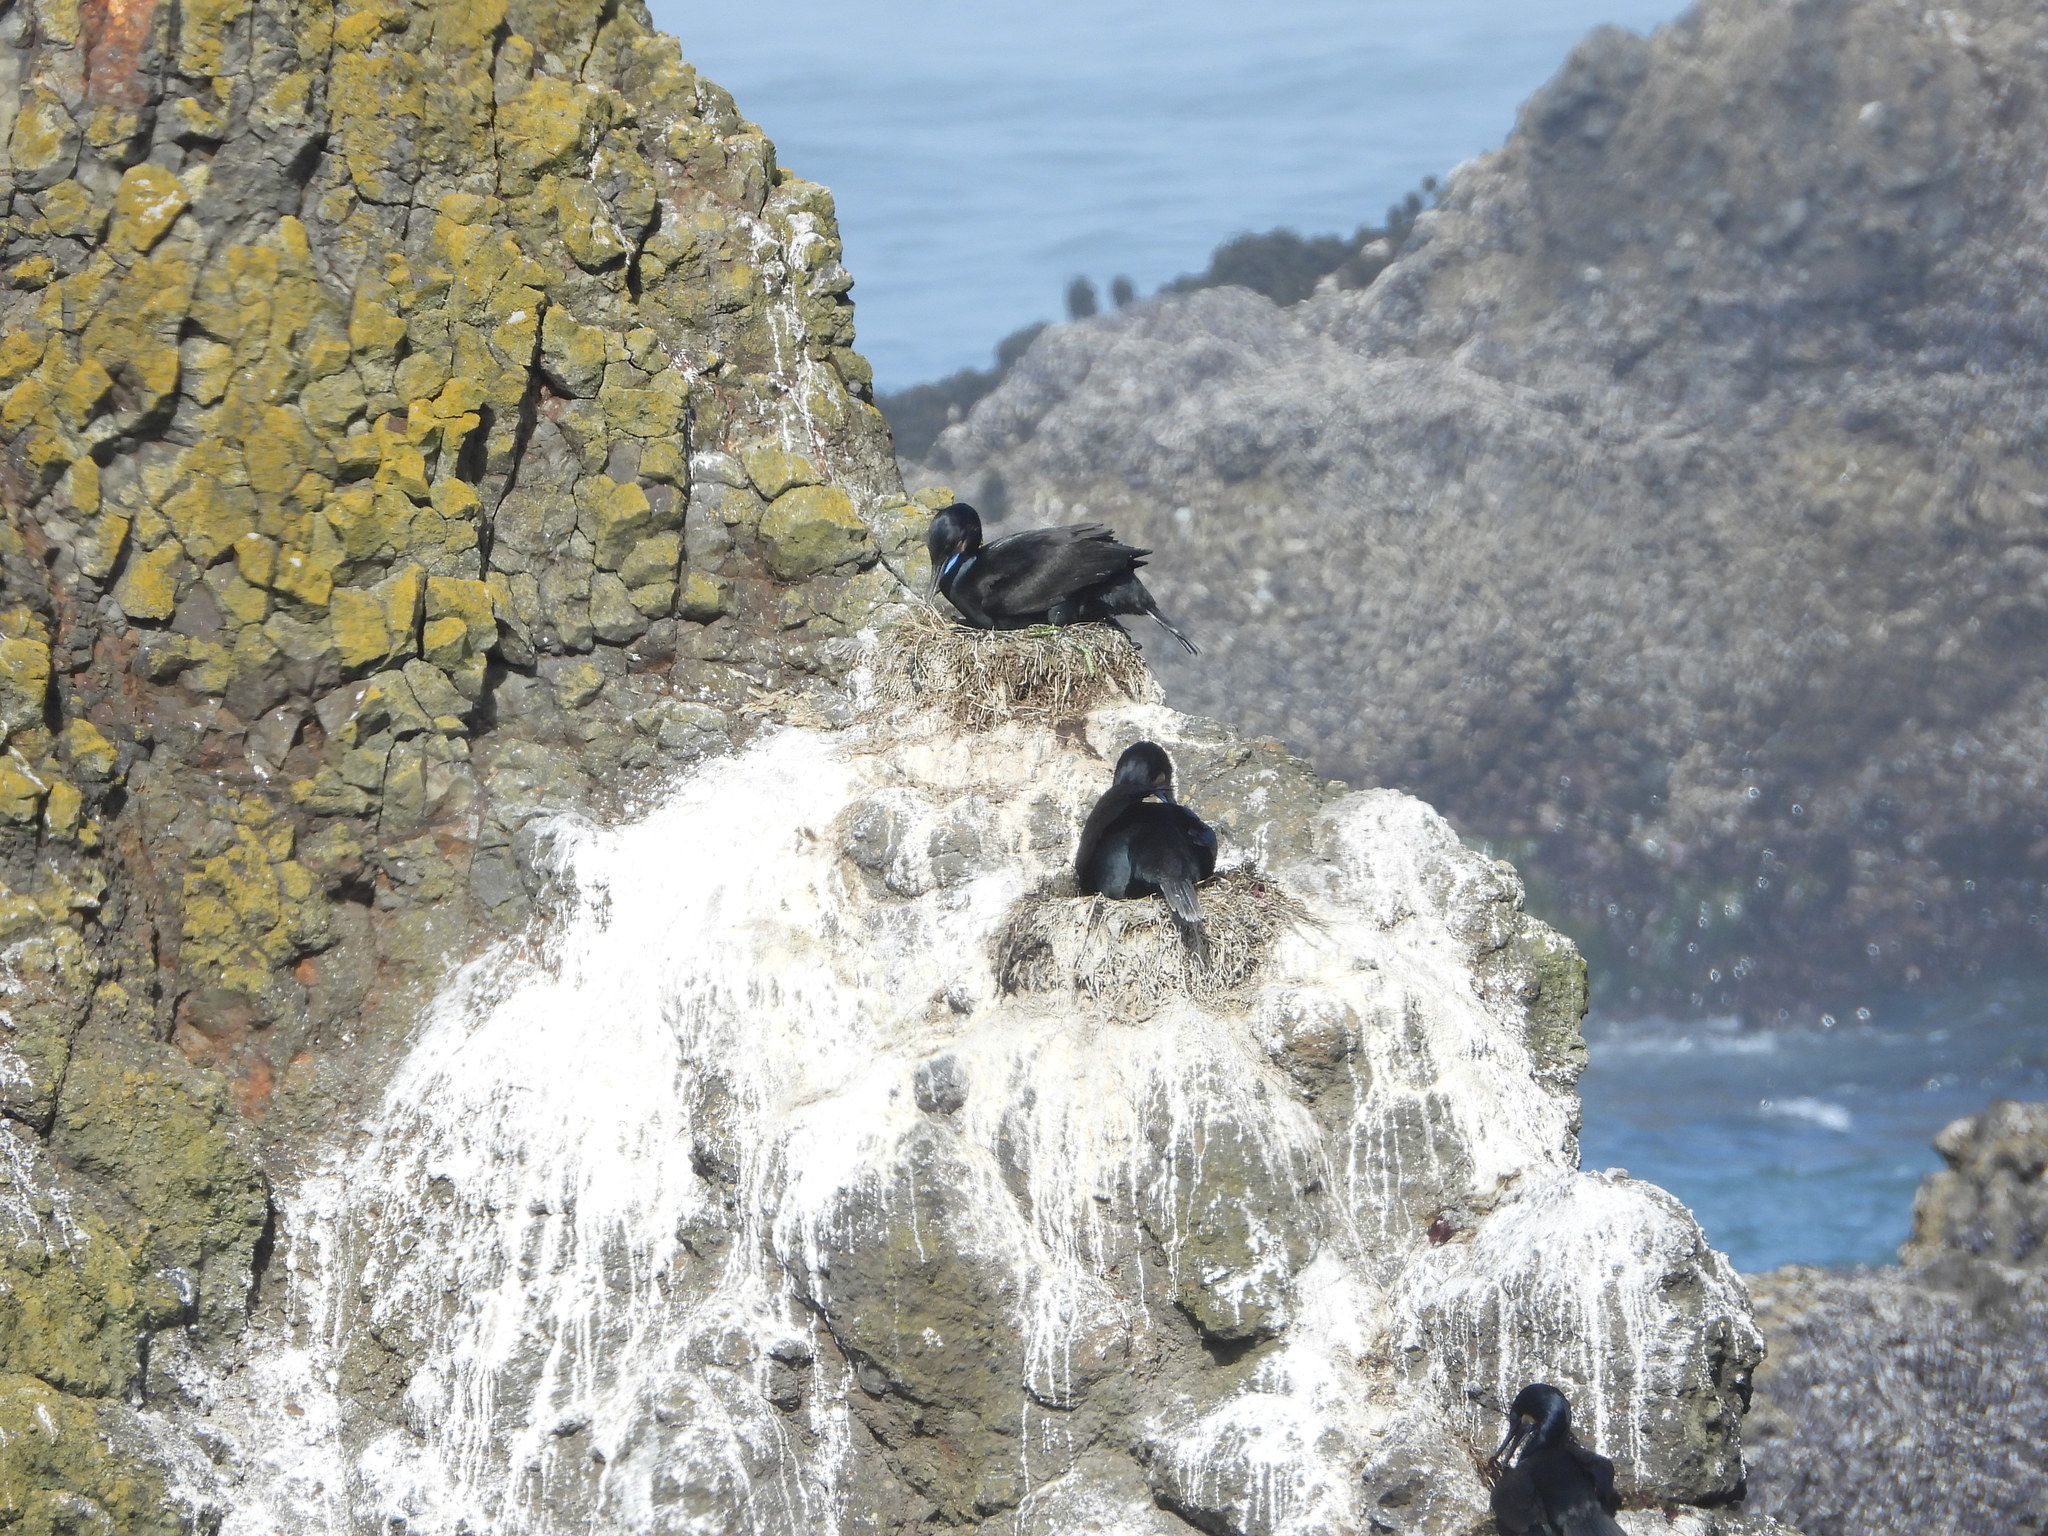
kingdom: Animalia
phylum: Chordata
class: Aves
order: Suliformes
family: Phalacrocoracidae
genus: Urile
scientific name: Urile penicillatus
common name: Brandt's cormorant
